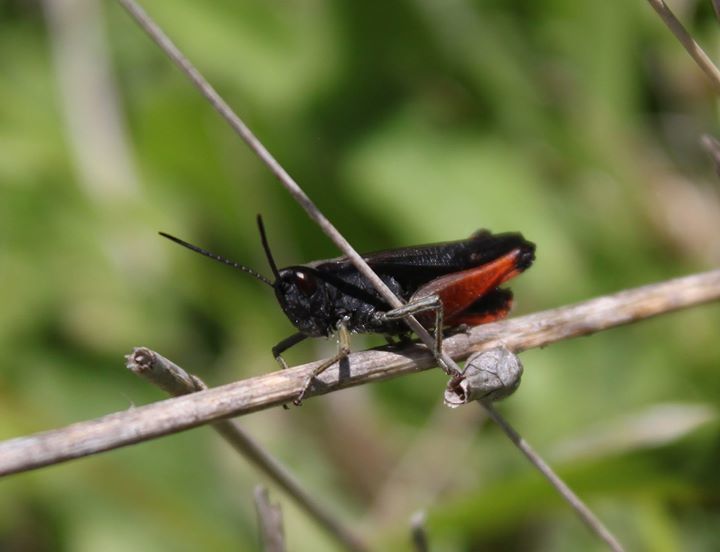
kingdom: Animalia
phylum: Arthropoda
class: Insecta
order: Orthoptera
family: Acrididae
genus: Omocestus
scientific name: Omocestus rufipes
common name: Woodland grasshopper
